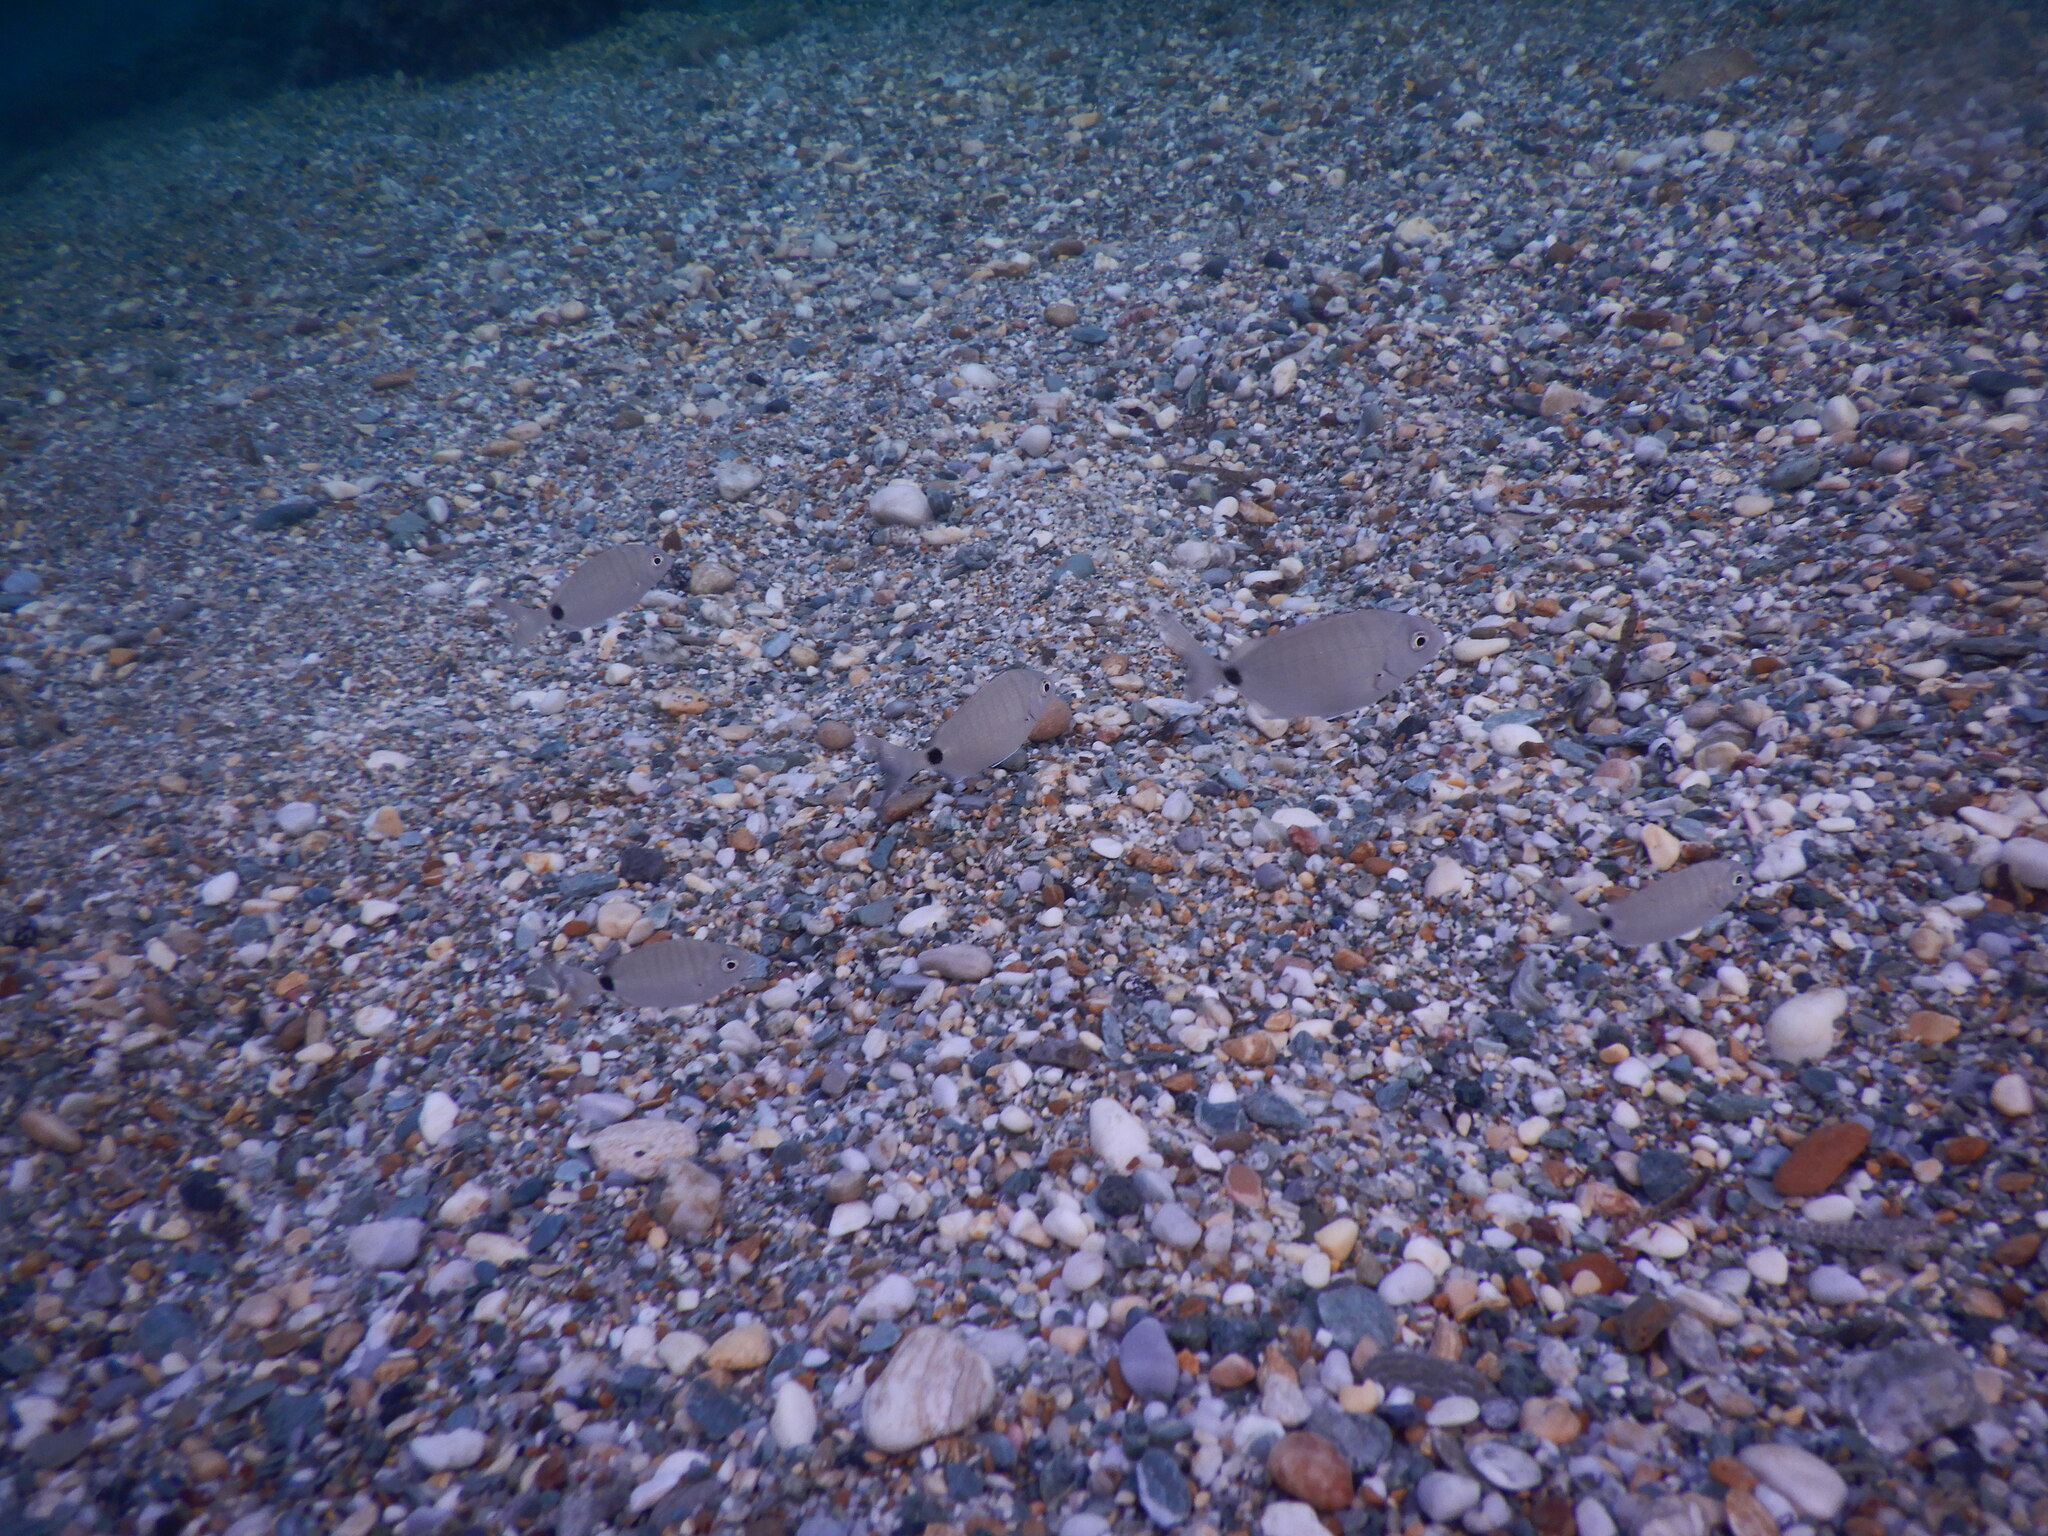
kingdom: Animalia
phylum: Chordata
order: Perciformes
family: Sparidae
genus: Diplodus
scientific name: Diplodus sargus
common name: White seabream
